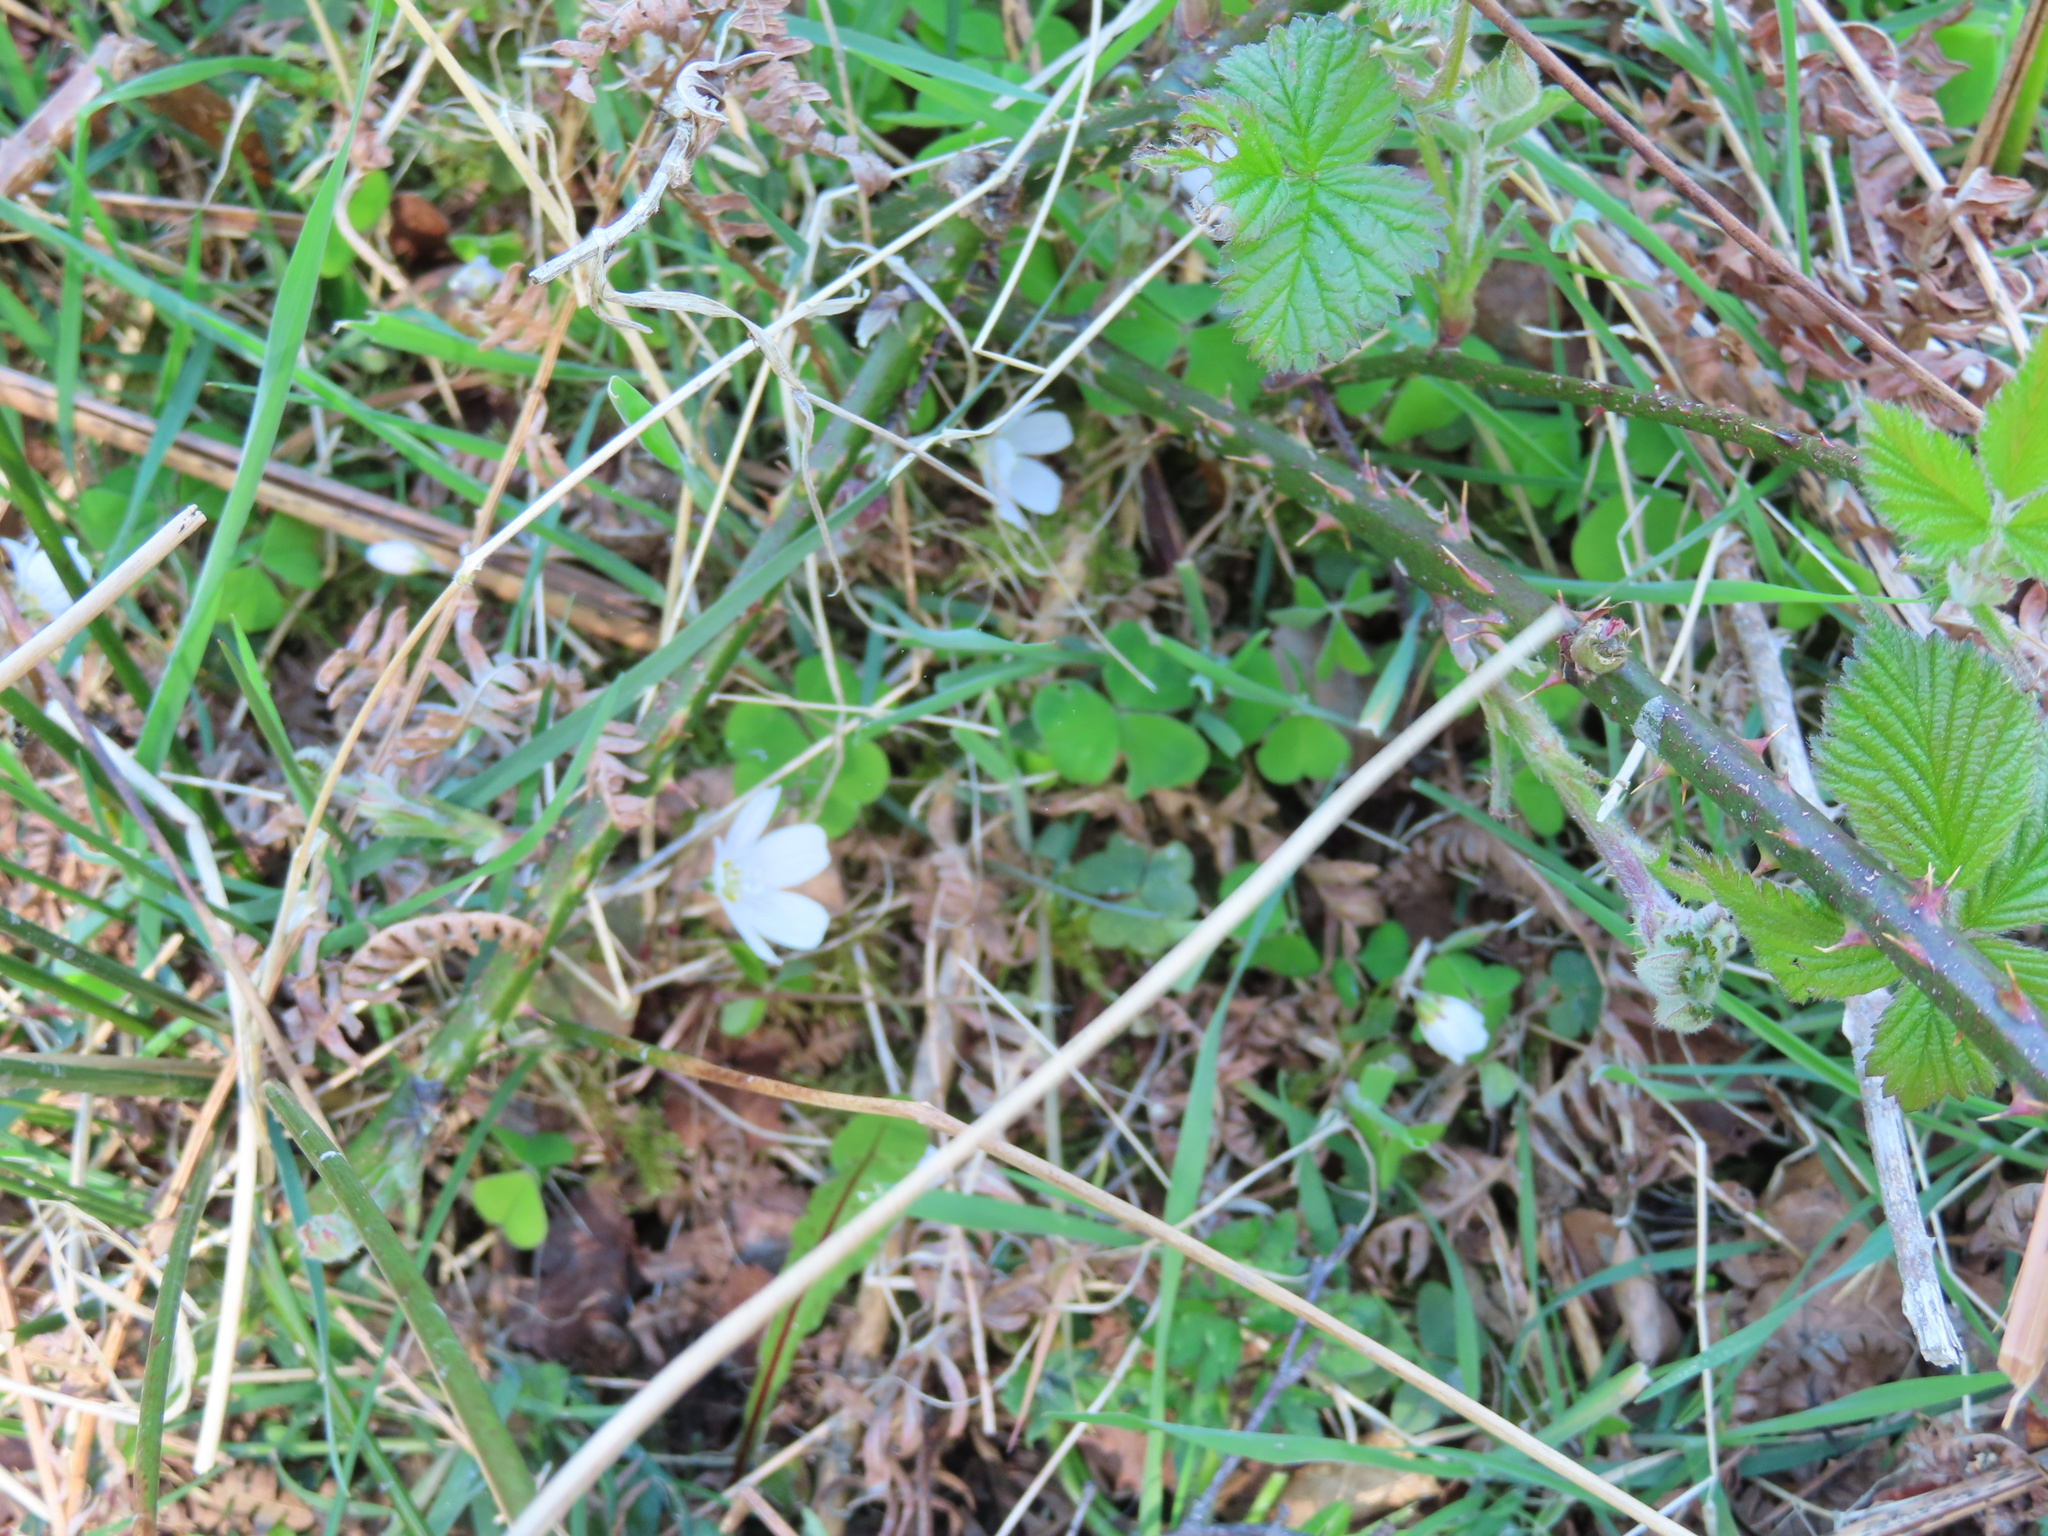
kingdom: Plantae
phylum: Tracheophyta
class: Magnoliopsida
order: Oxalidales
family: Oxalidaceae
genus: Oxalis
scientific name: Oxalis acetosella
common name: Wood-sorrel
